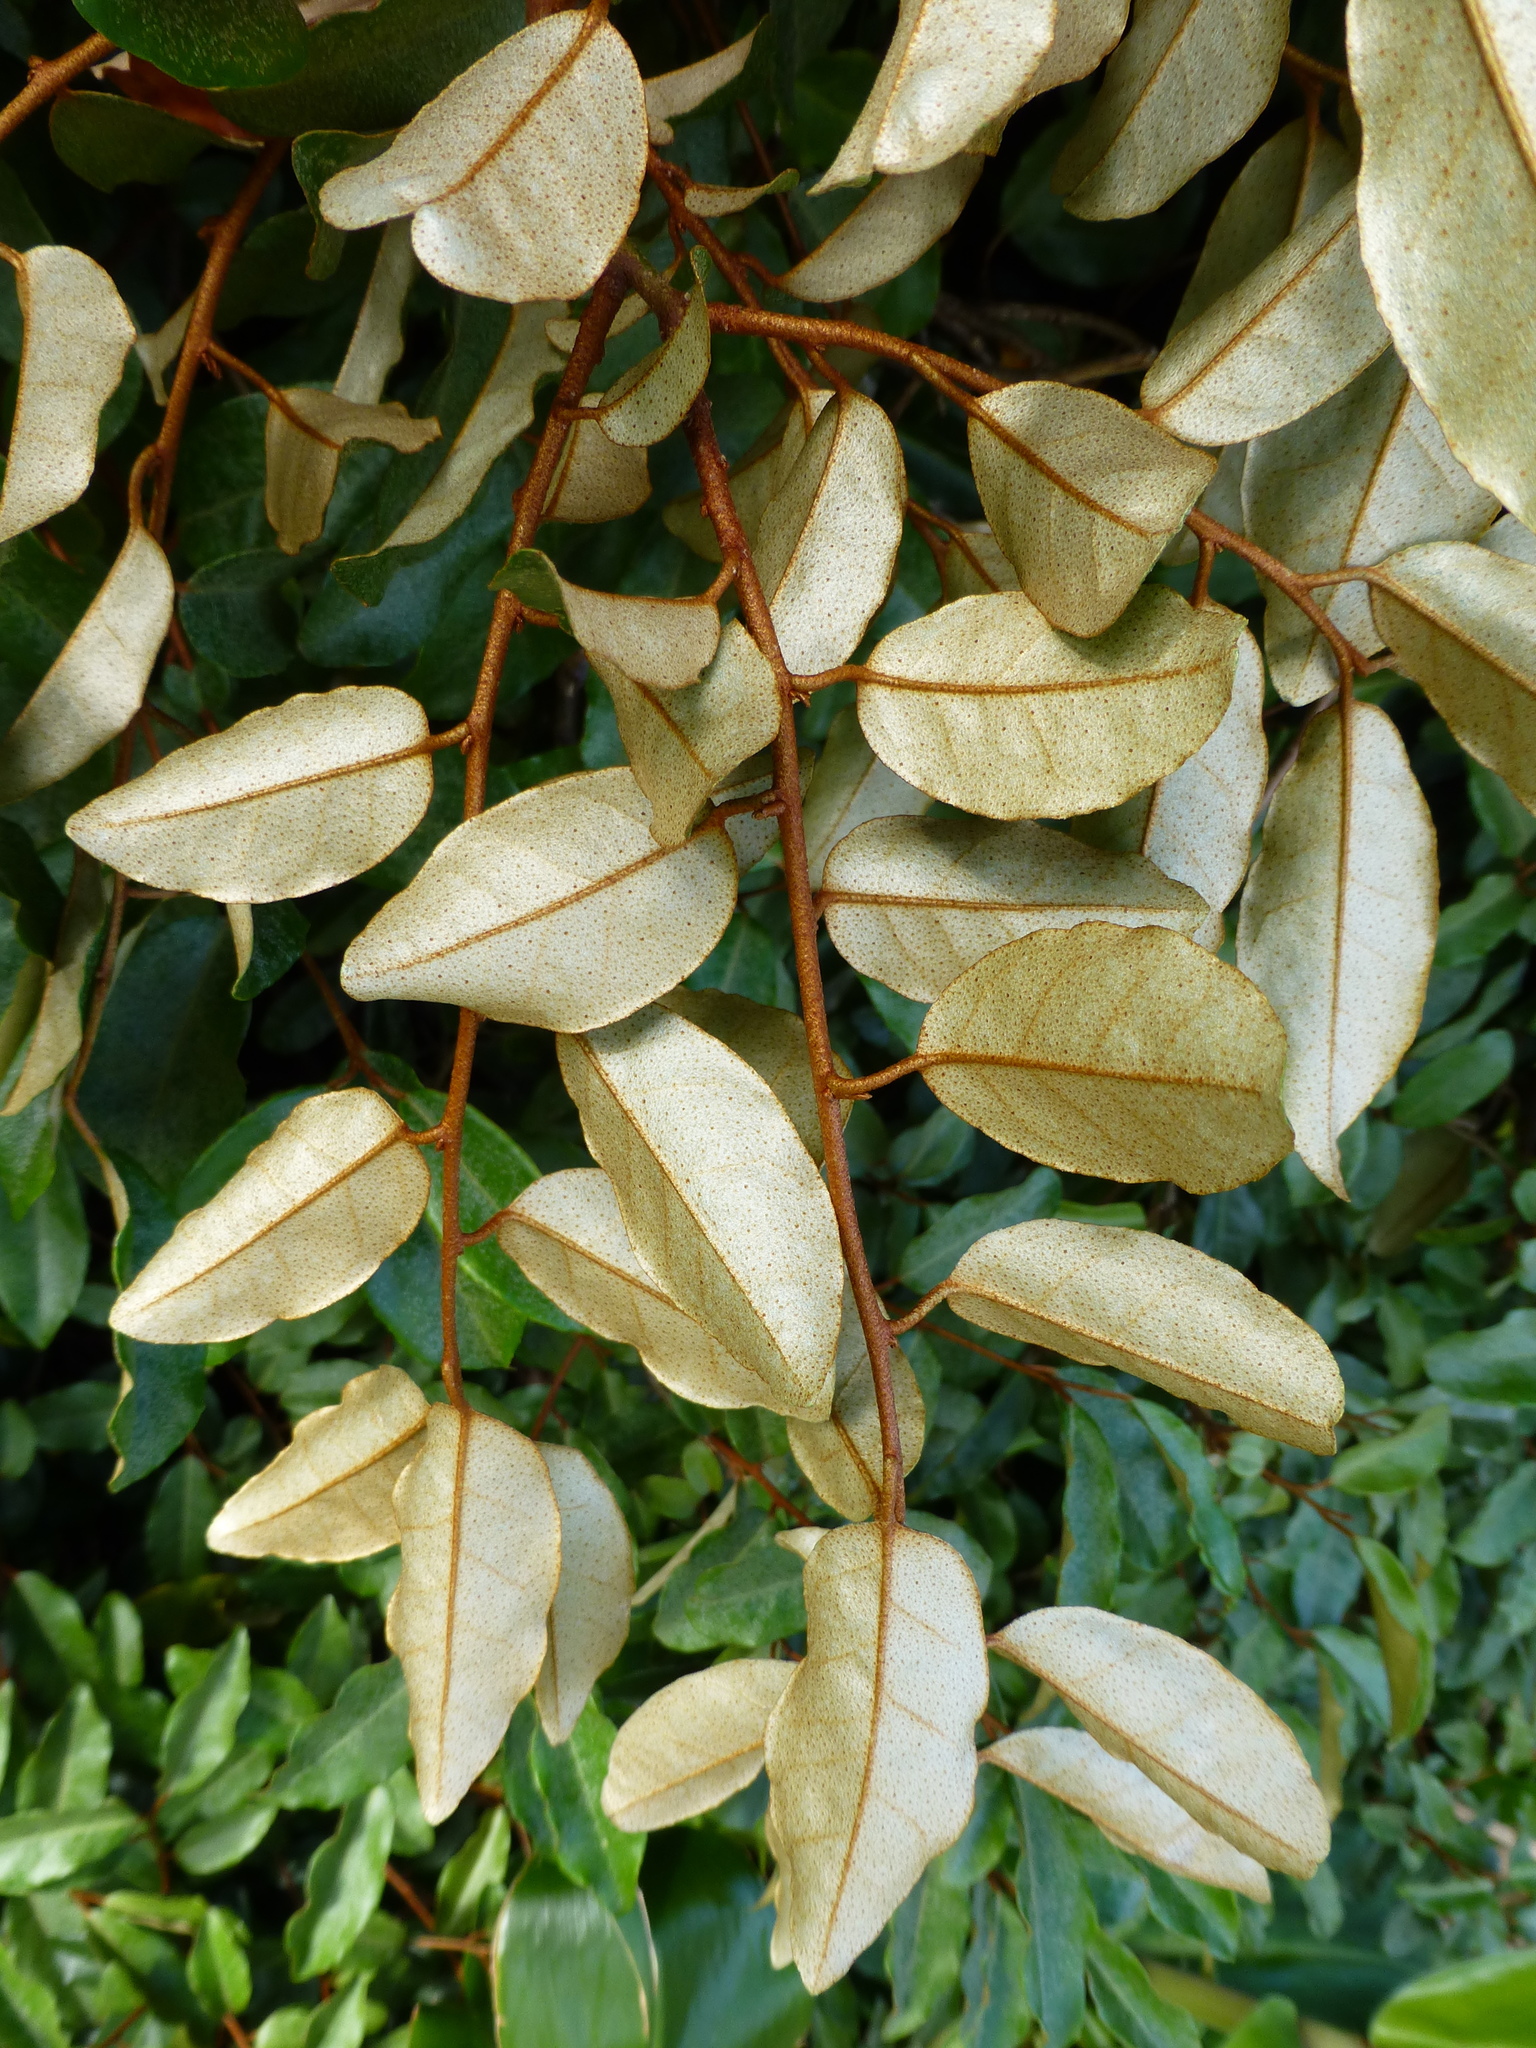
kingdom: Plantae
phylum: Tracheophyta
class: Magnoliopsida
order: Rosales
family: Elaeagnaceae
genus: Elaeagnus
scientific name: Elaeagnus reflexa
